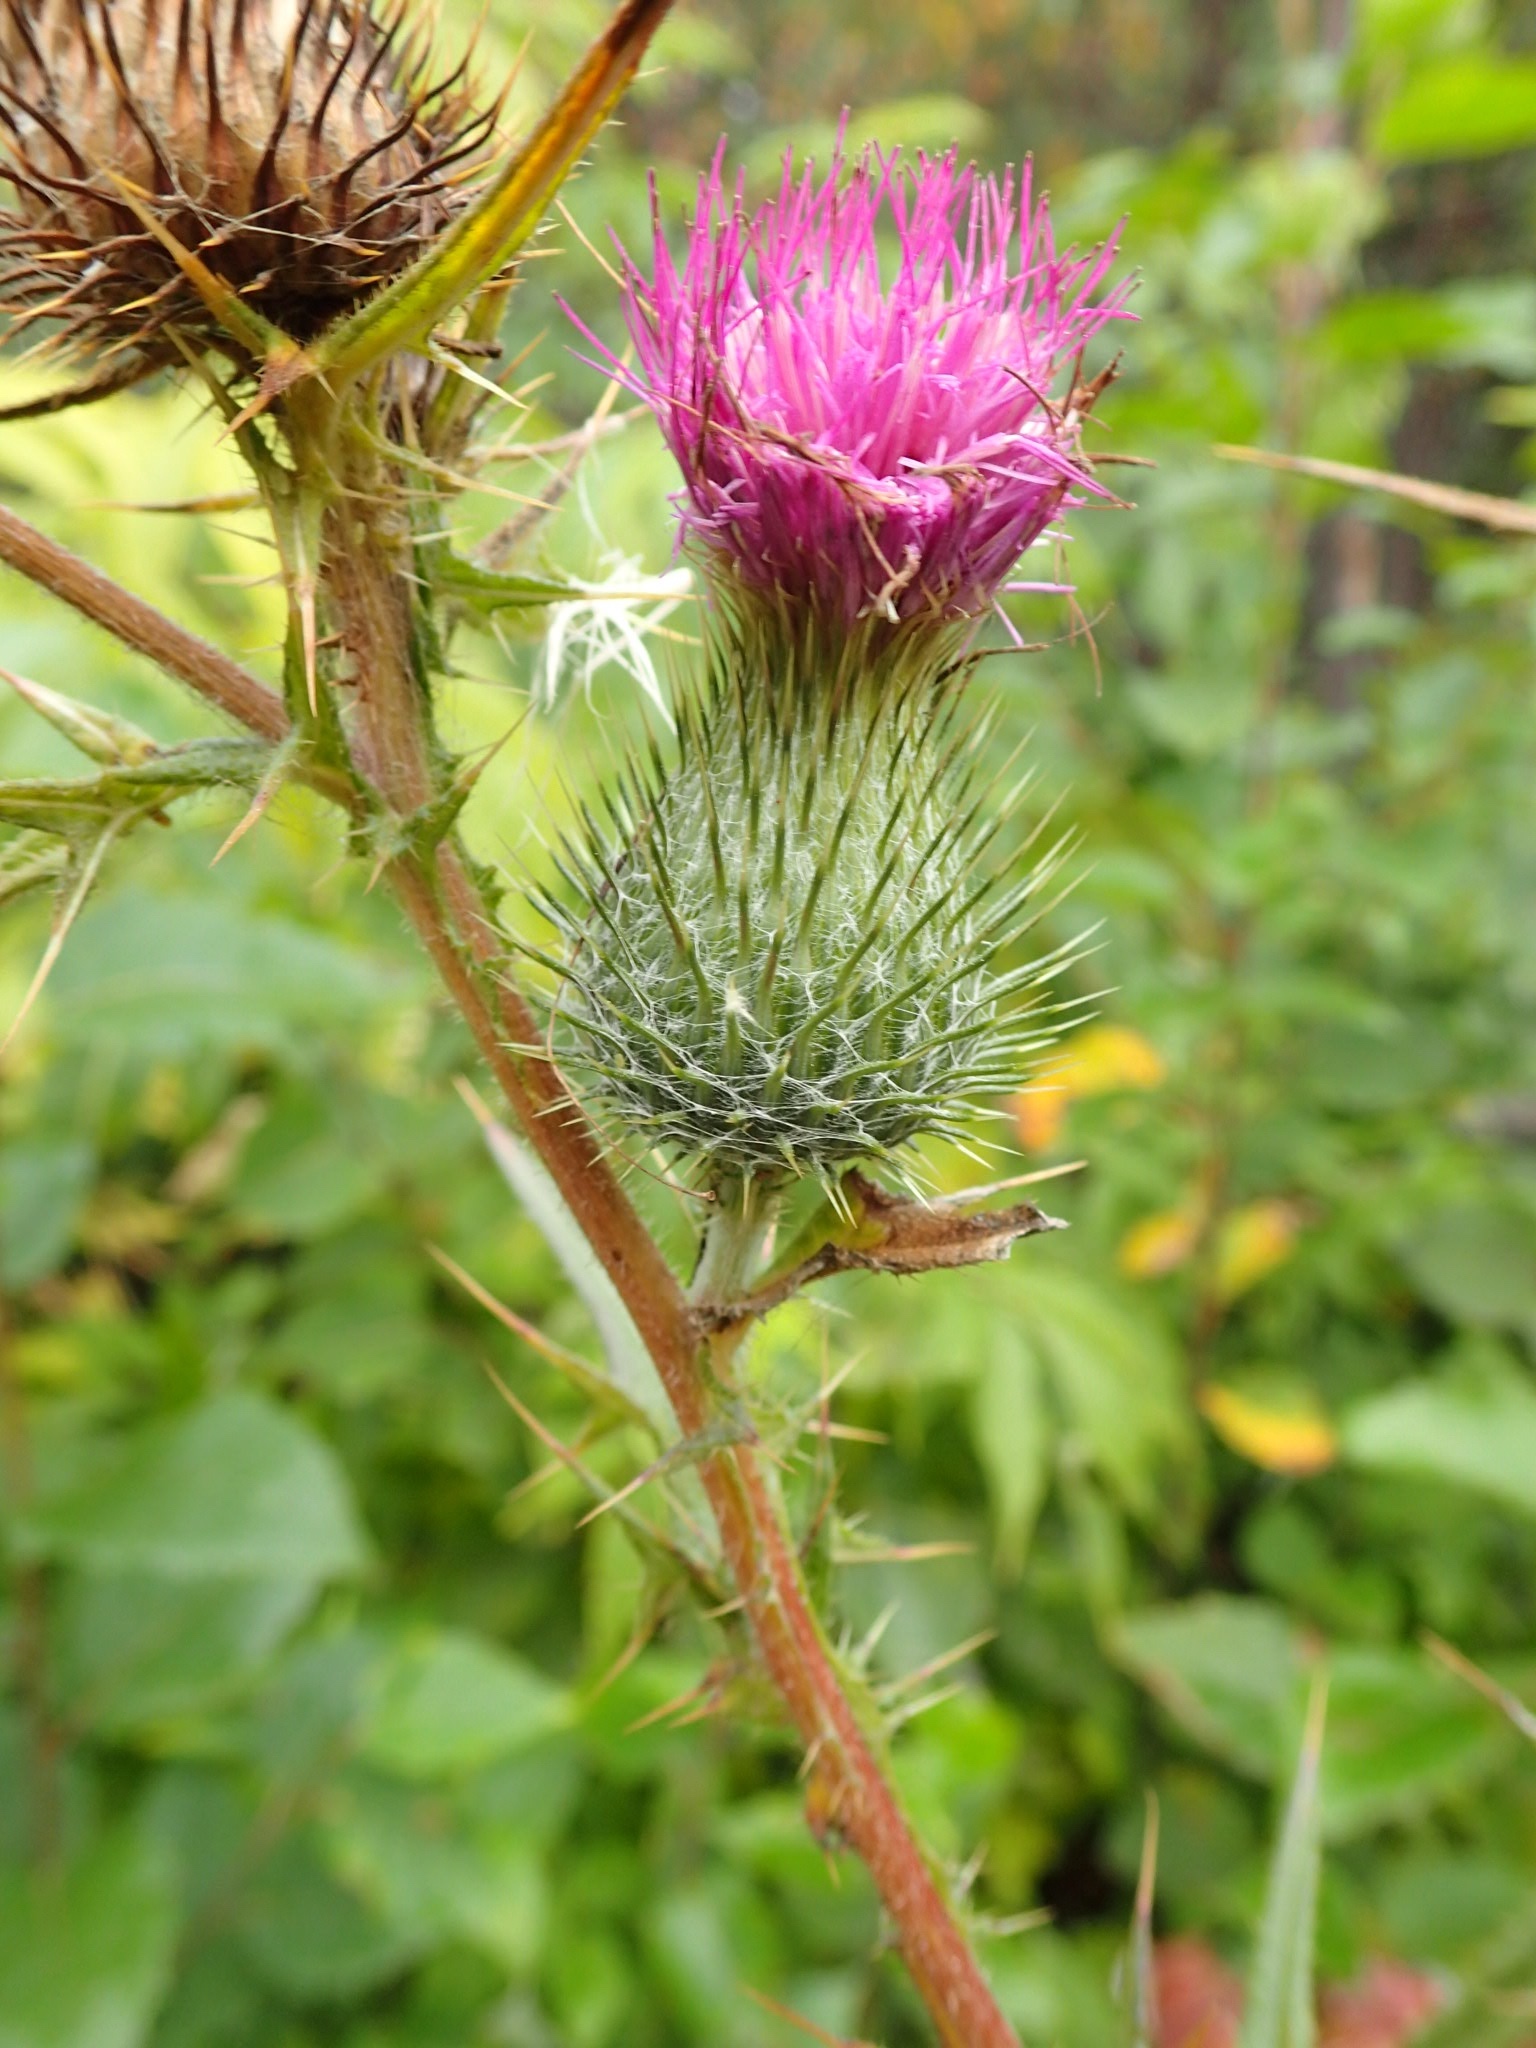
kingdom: Plantae
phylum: Tracheophyta
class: Magnoliopsida
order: Asterales
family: Asteraceae
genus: Cirsium
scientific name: Cirsium vulgare
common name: Bull thistle
